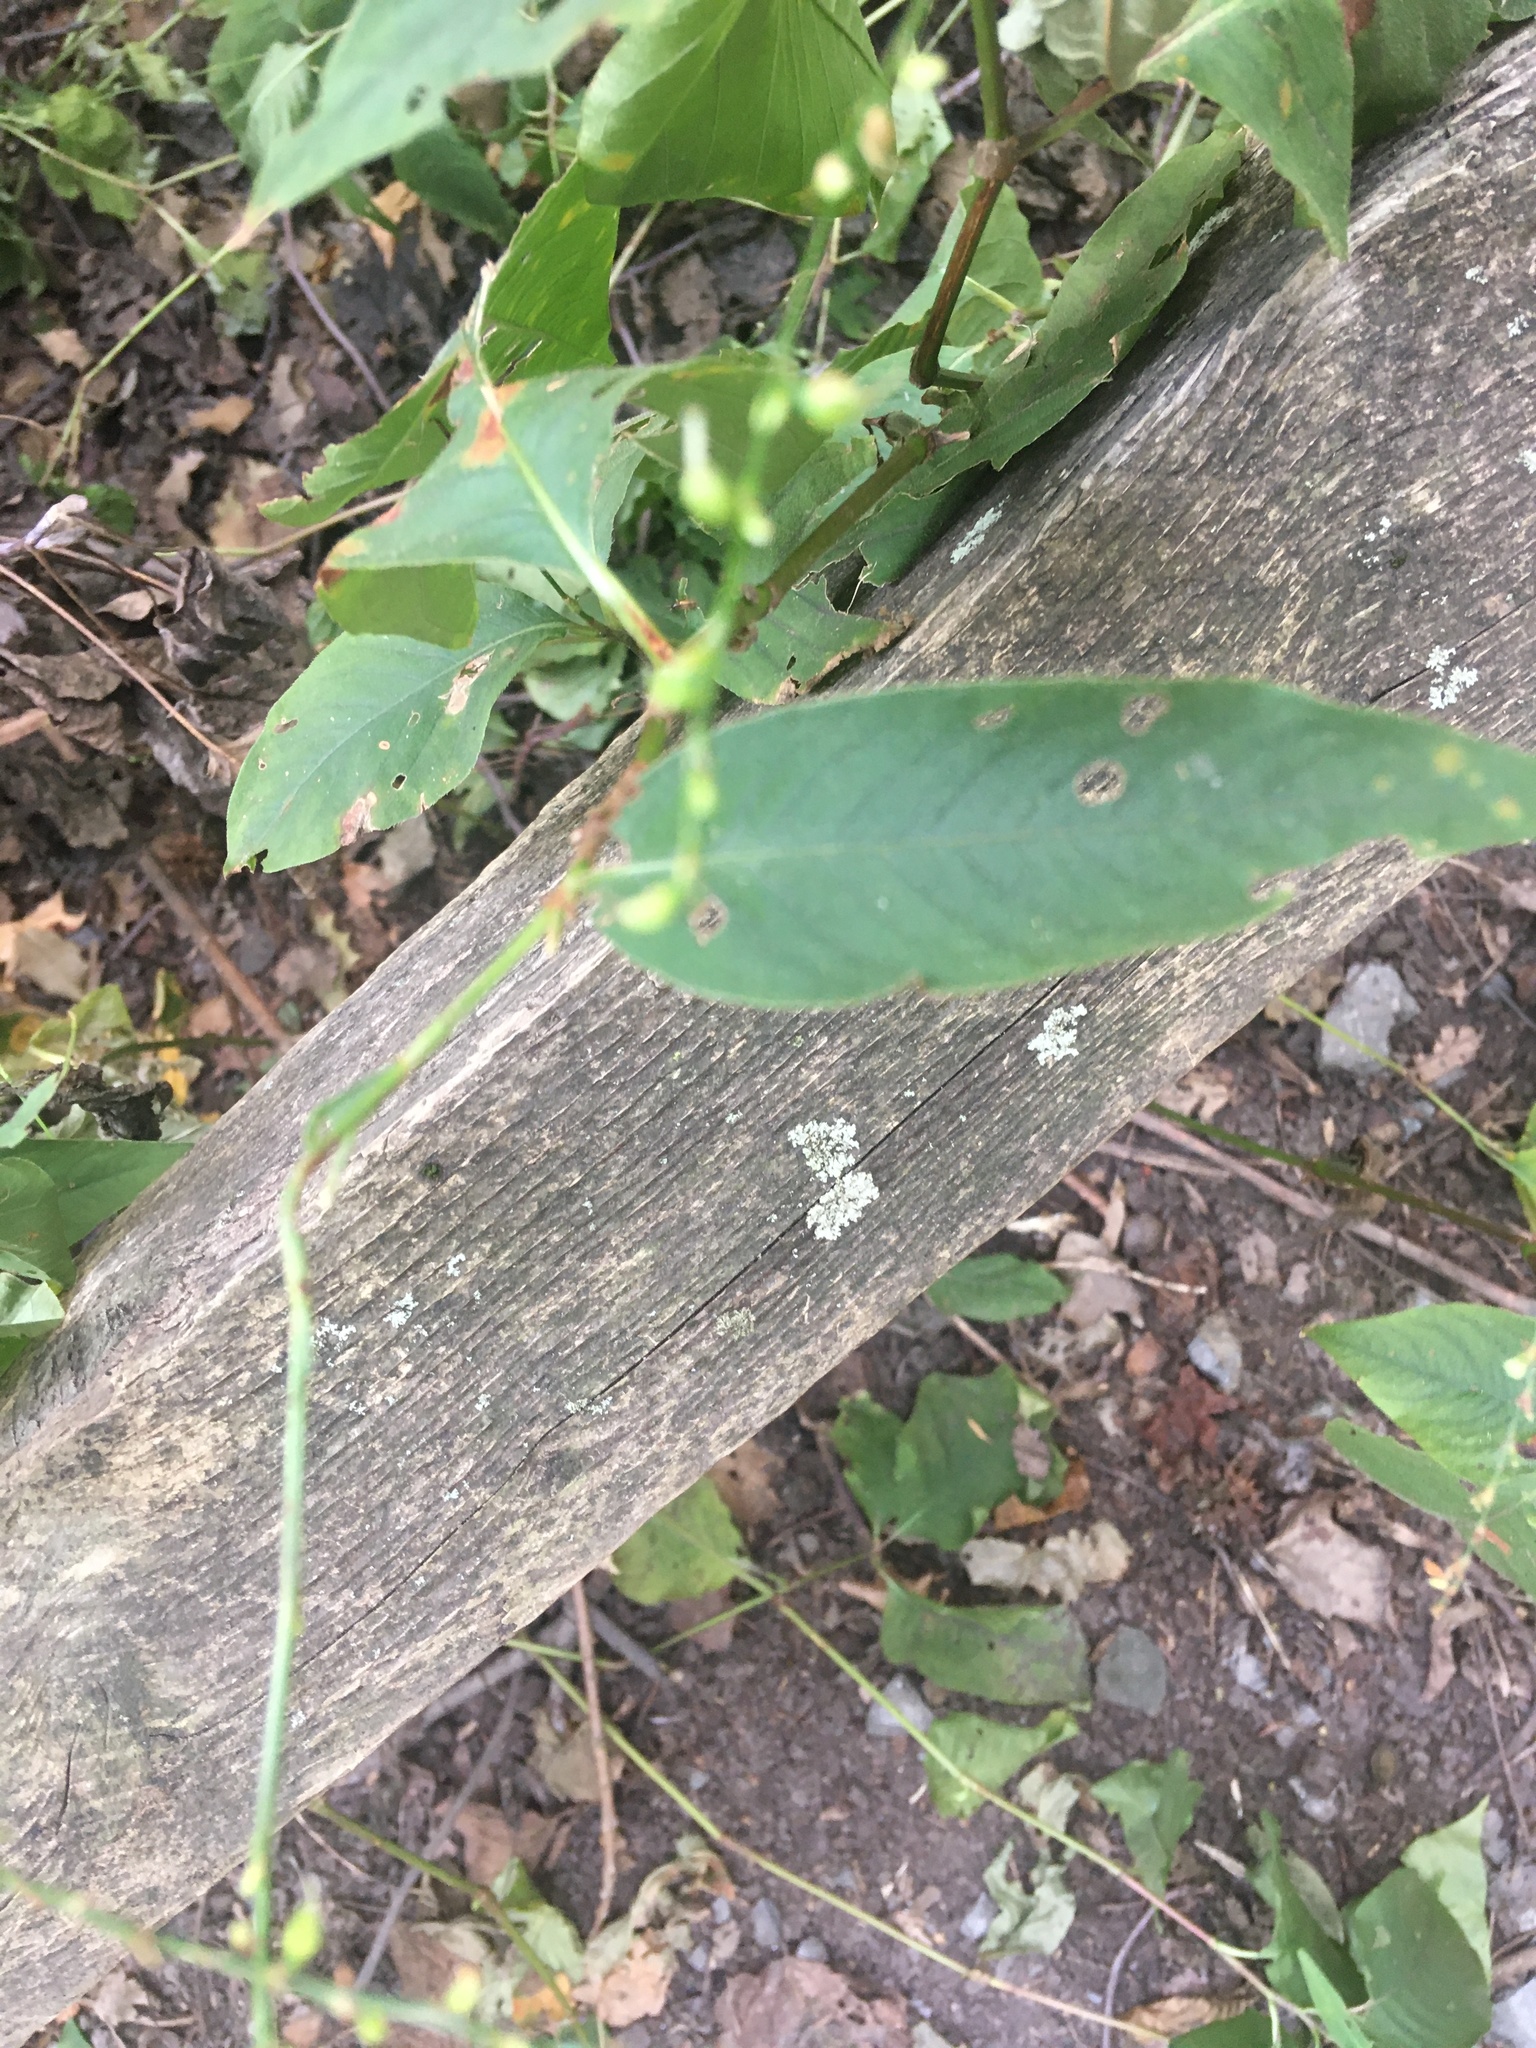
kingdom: Plantae
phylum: Tracheophyta
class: Magnoliopsida
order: Caryophyllales
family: Polygonaceae
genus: Persicaria
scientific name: Persicaria virginiana
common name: Jumpseed
